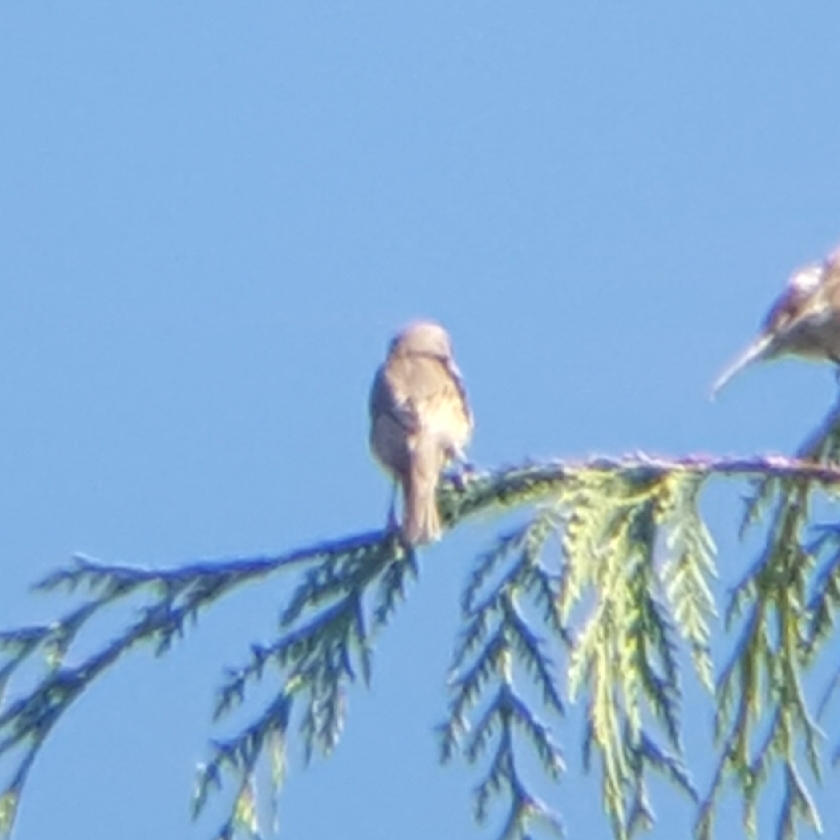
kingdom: Animalia
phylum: Chordata
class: Aves
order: Passeriformes
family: Fringillidae
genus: Haemorhous
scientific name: Haemorhous mexicanus
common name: House finch
